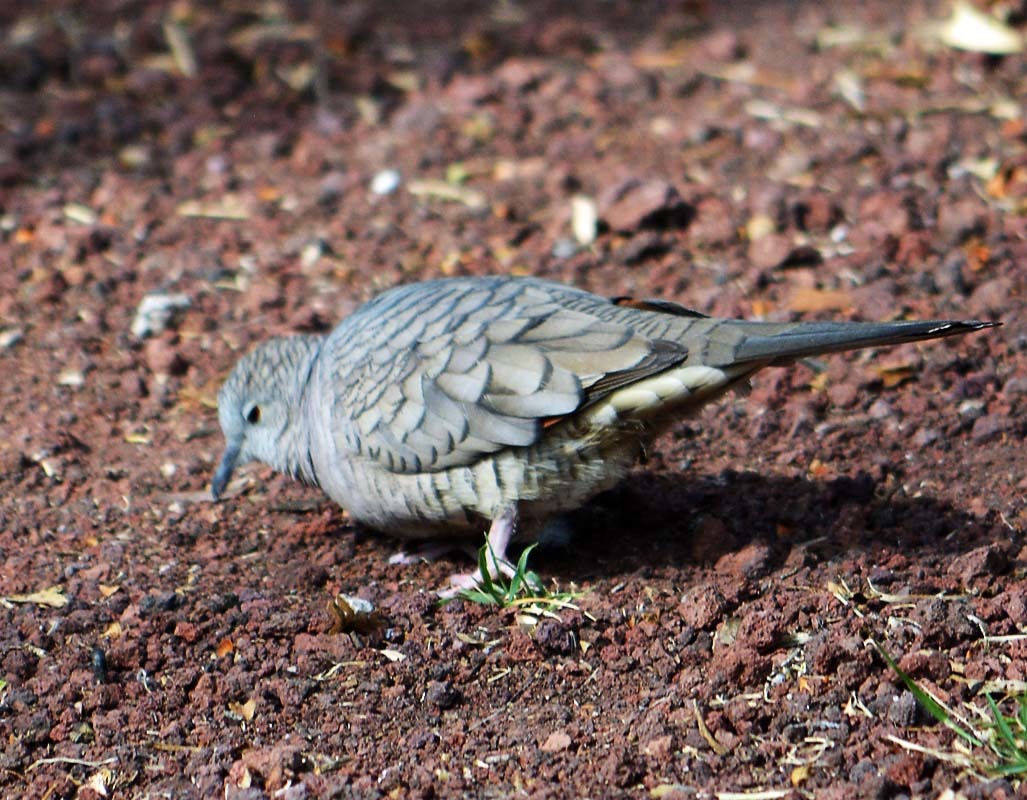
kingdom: Animalia
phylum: Chordata
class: Aves
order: Columbiformes
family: Columbidae
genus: Columbina
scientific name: Columbina inca
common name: Inca dove
